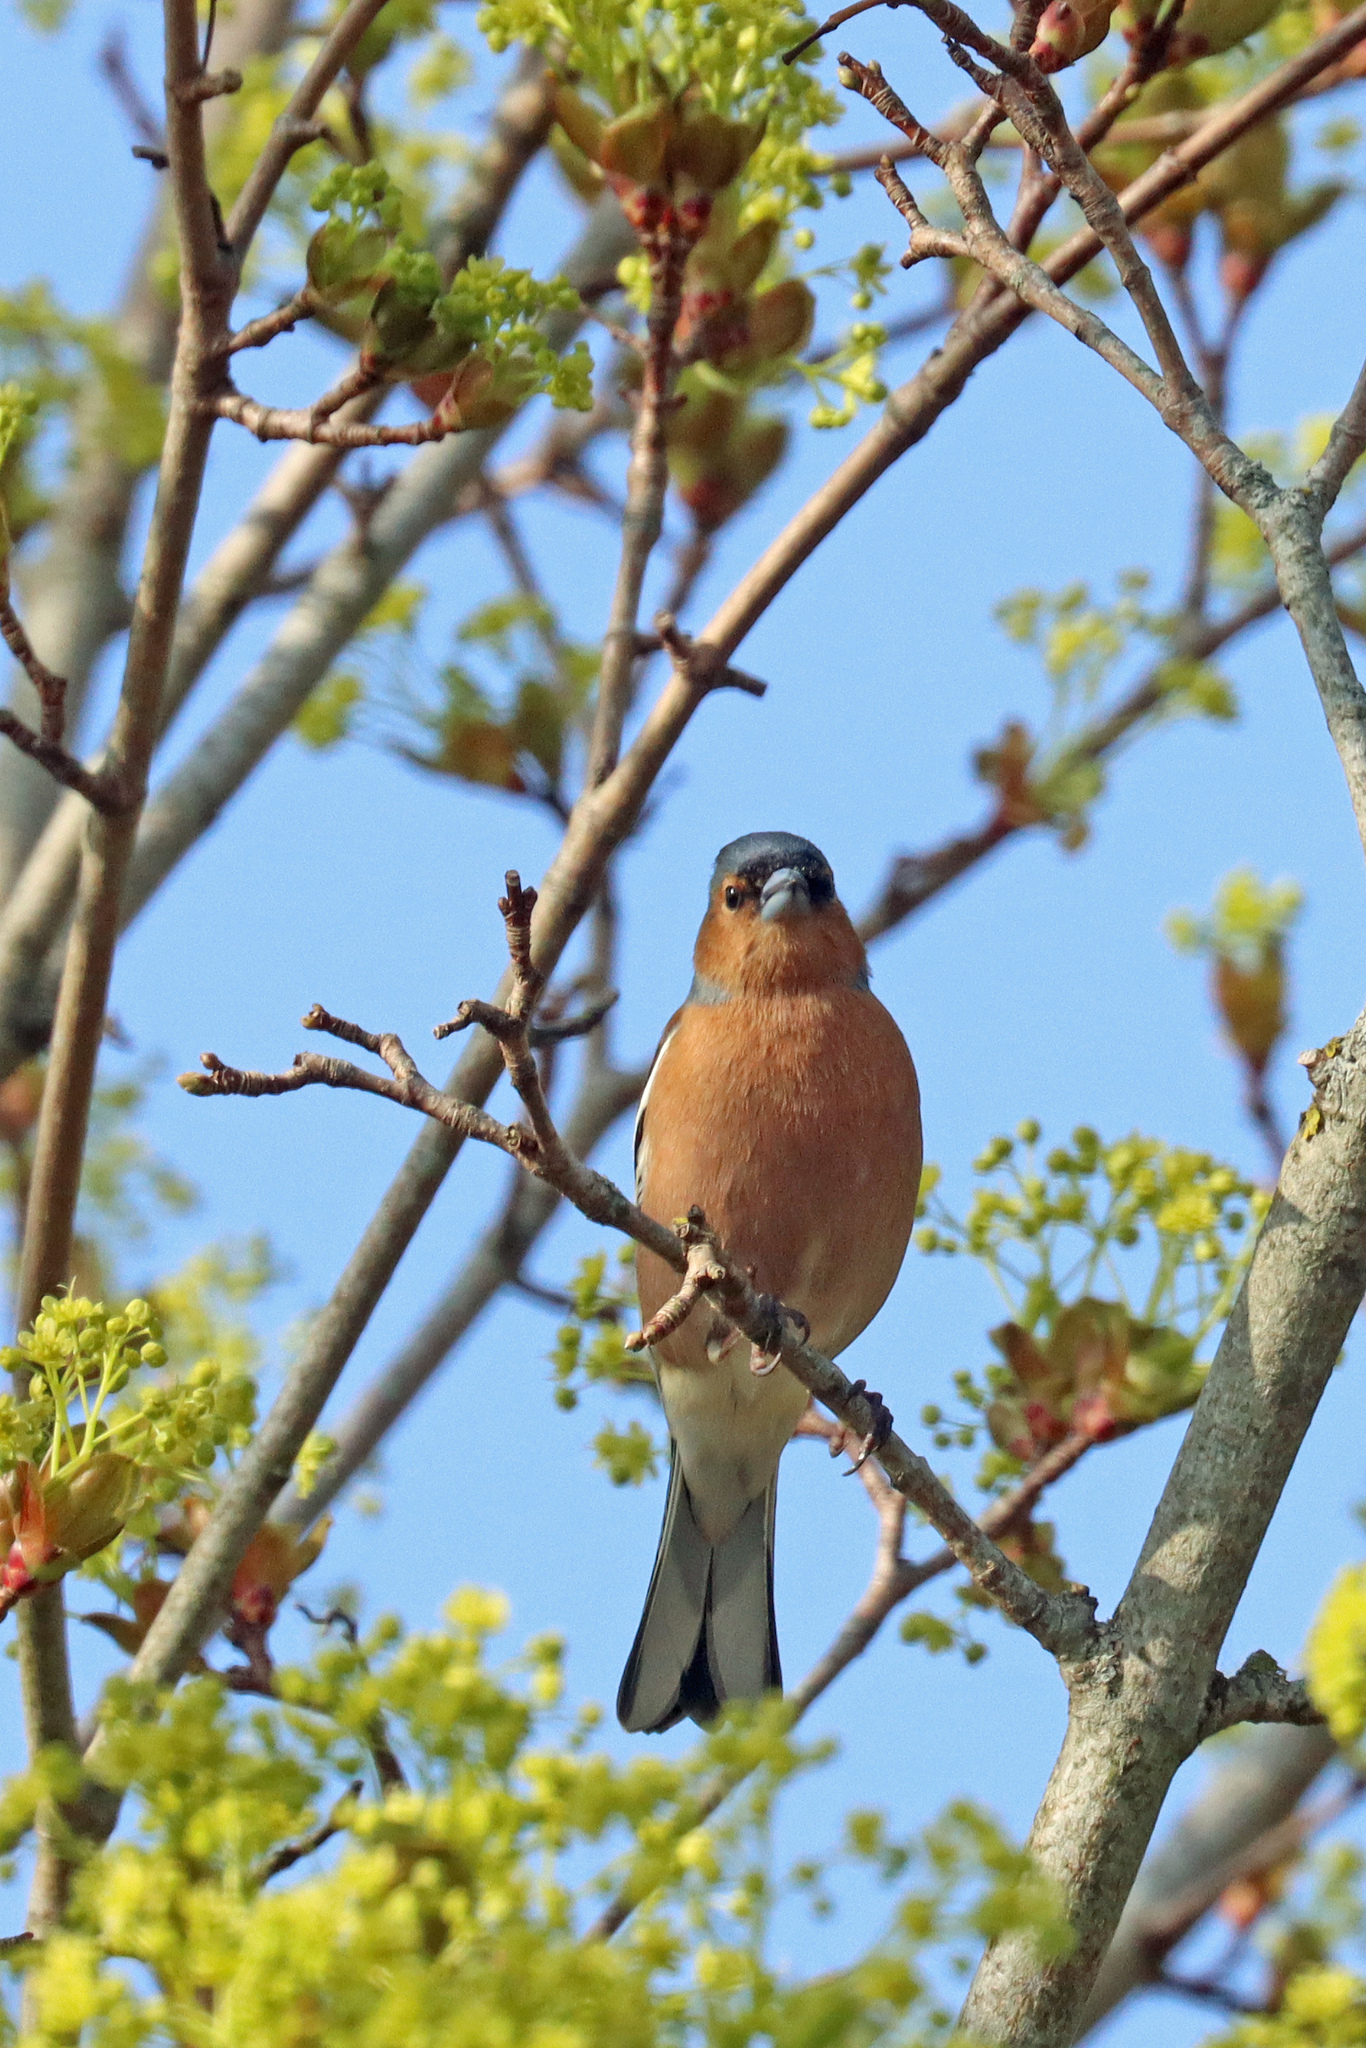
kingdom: Animalia
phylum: Chordata
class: Aves
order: Passeriformes
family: Fringillidae
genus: Fringilla
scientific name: Fringilla coelebs
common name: Common chaffinch
